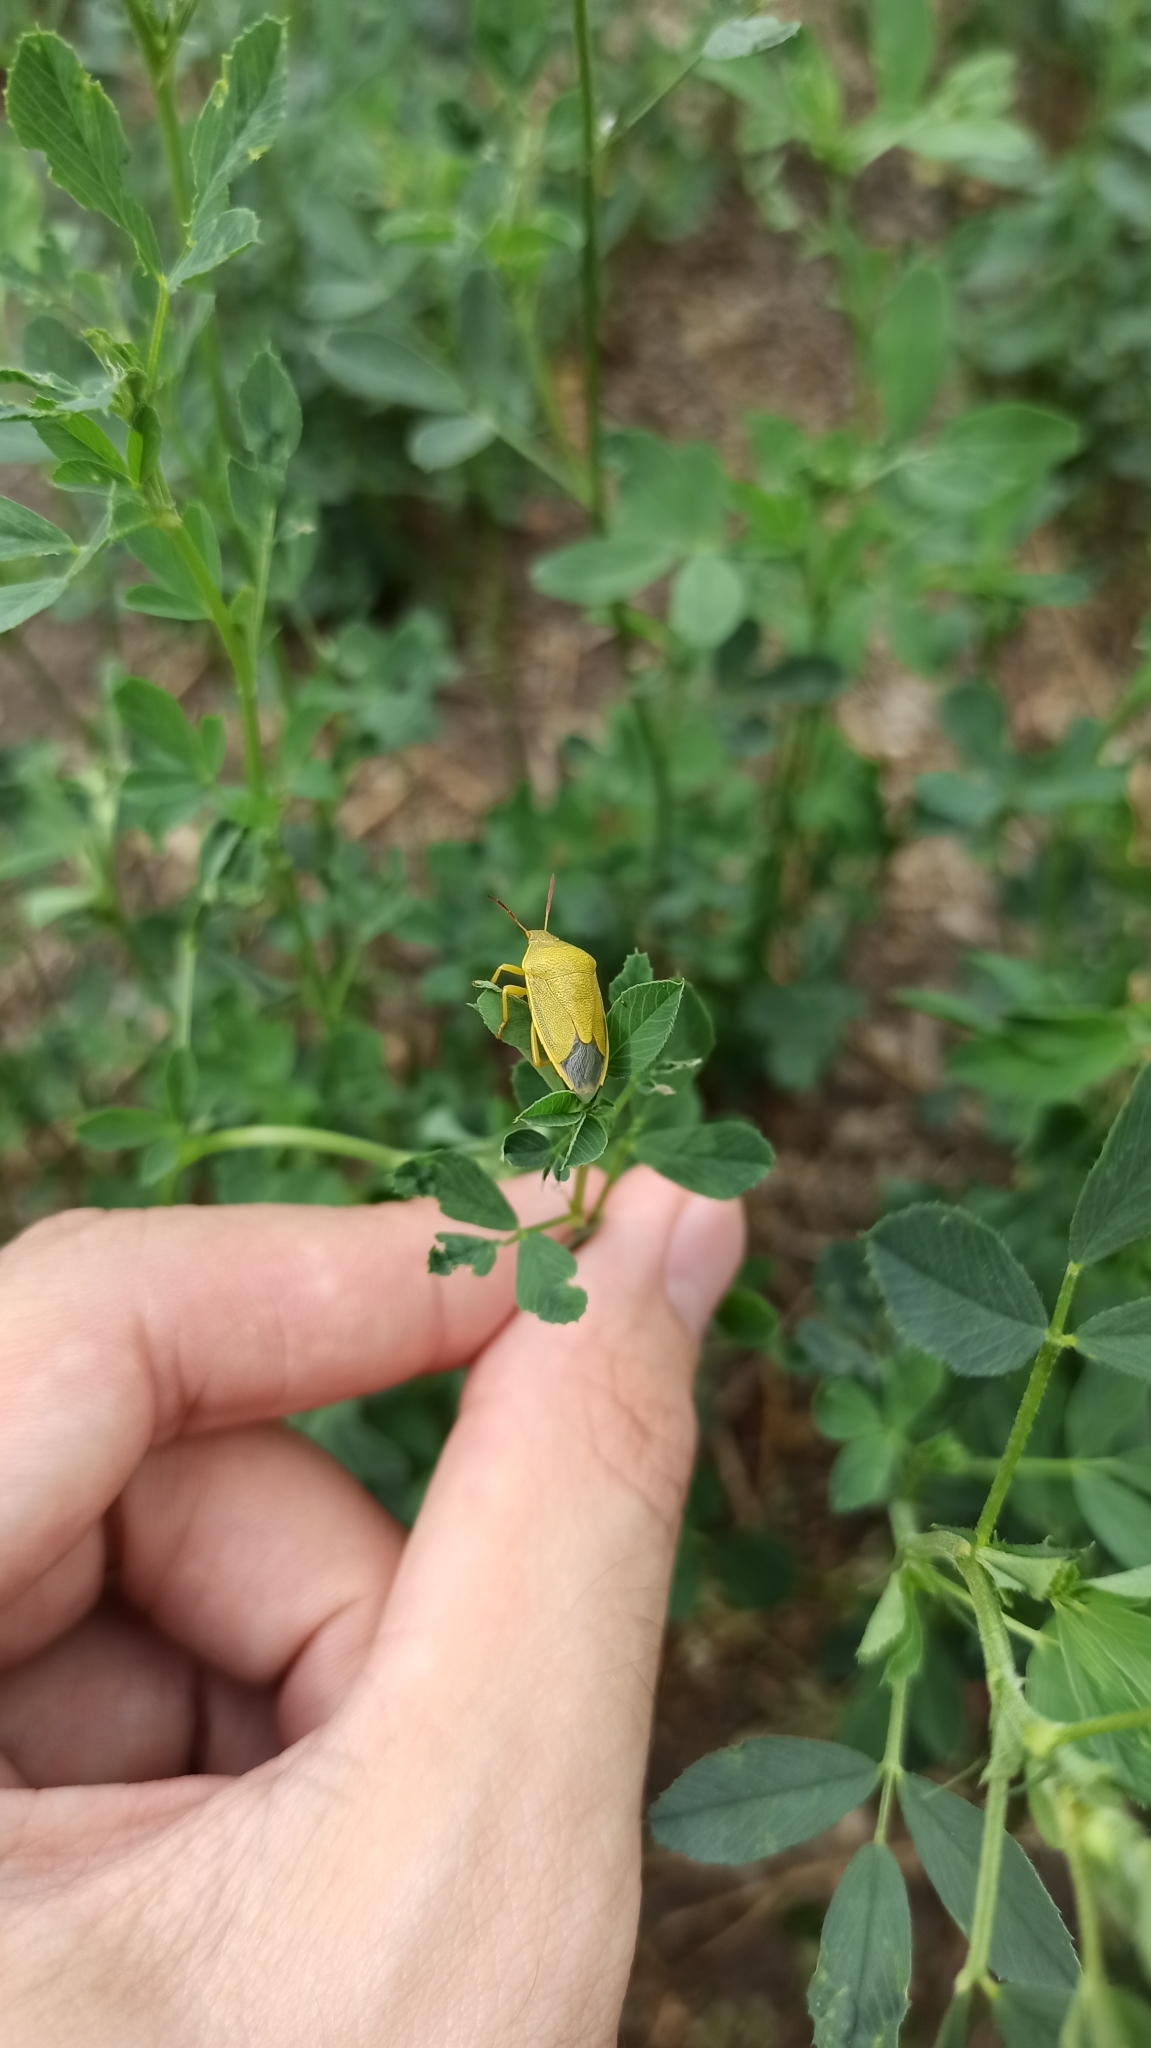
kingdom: Animalia
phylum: Arthropoda
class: Insecta
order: Hemiptera
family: Pentatomidae
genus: Piezodorus
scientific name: Piezodorus lituratus
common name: Stink bug
